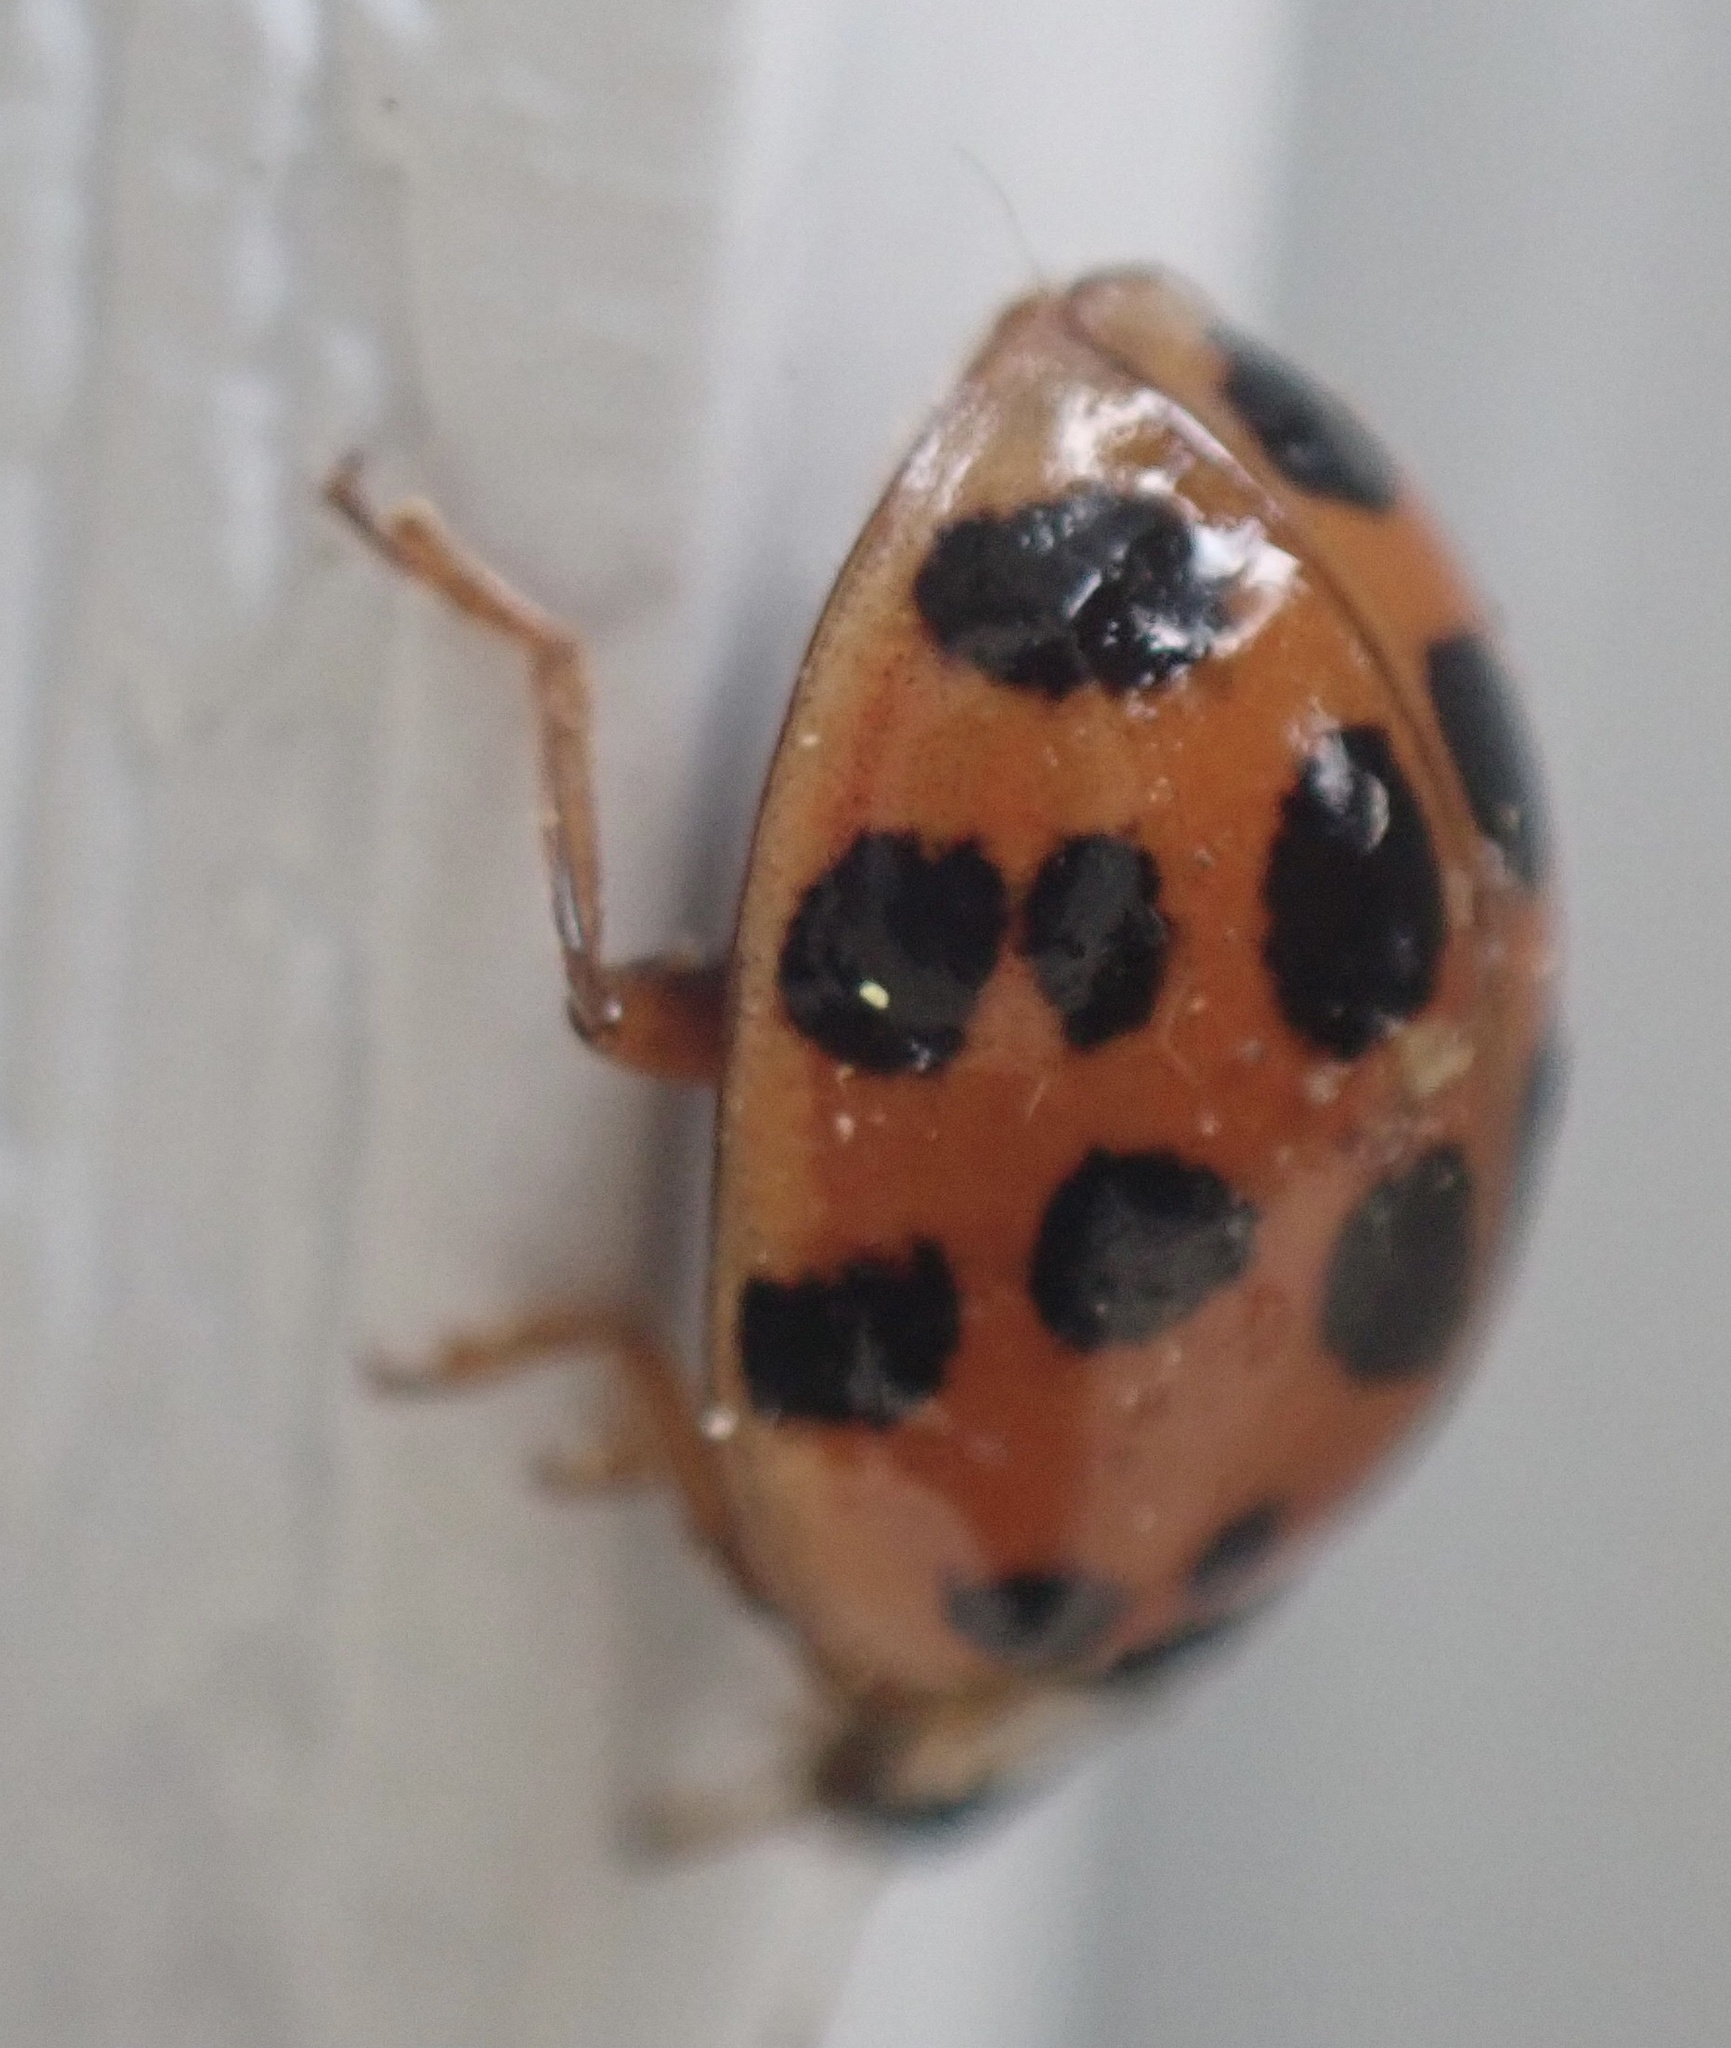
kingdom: Animalia
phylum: Arthropoda
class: Insecta
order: Coleoptera
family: Coccinellidae
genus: Harmonia
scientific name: Harmonia axyridis
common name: Harlequin ladybird
